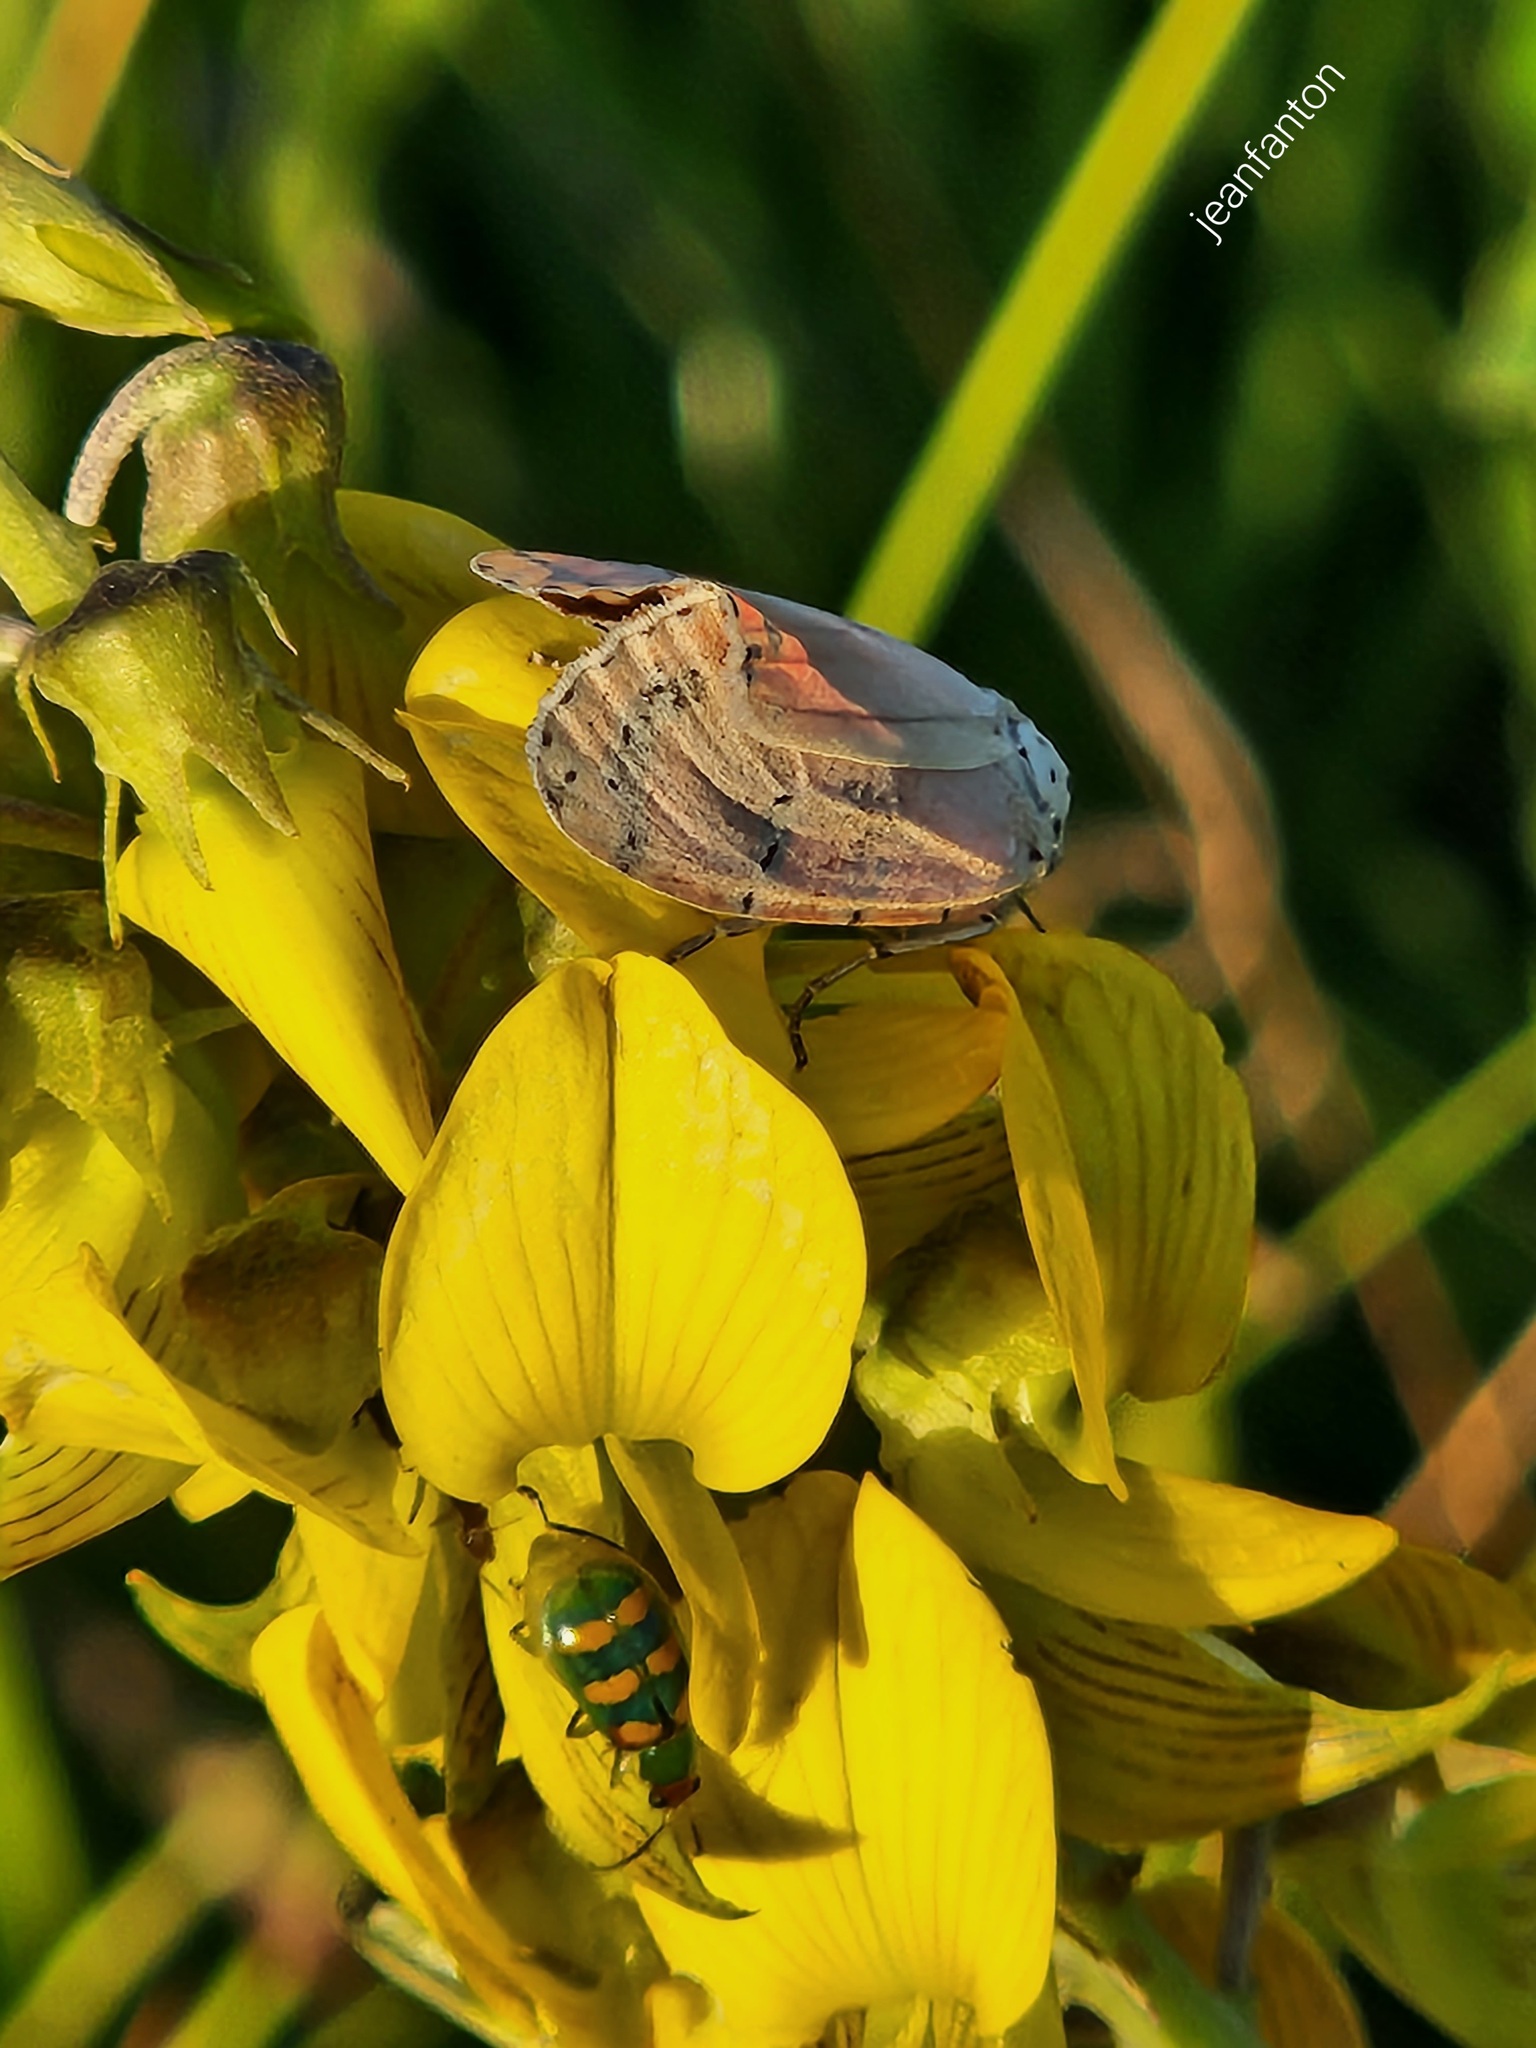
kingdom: Animalia
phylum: Arthropoda
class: Insecta
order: Lepidoptera
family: Erebidae
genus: Utetheisa
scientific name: Utetheisa ornatrix
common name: Beautiful utetheisa
